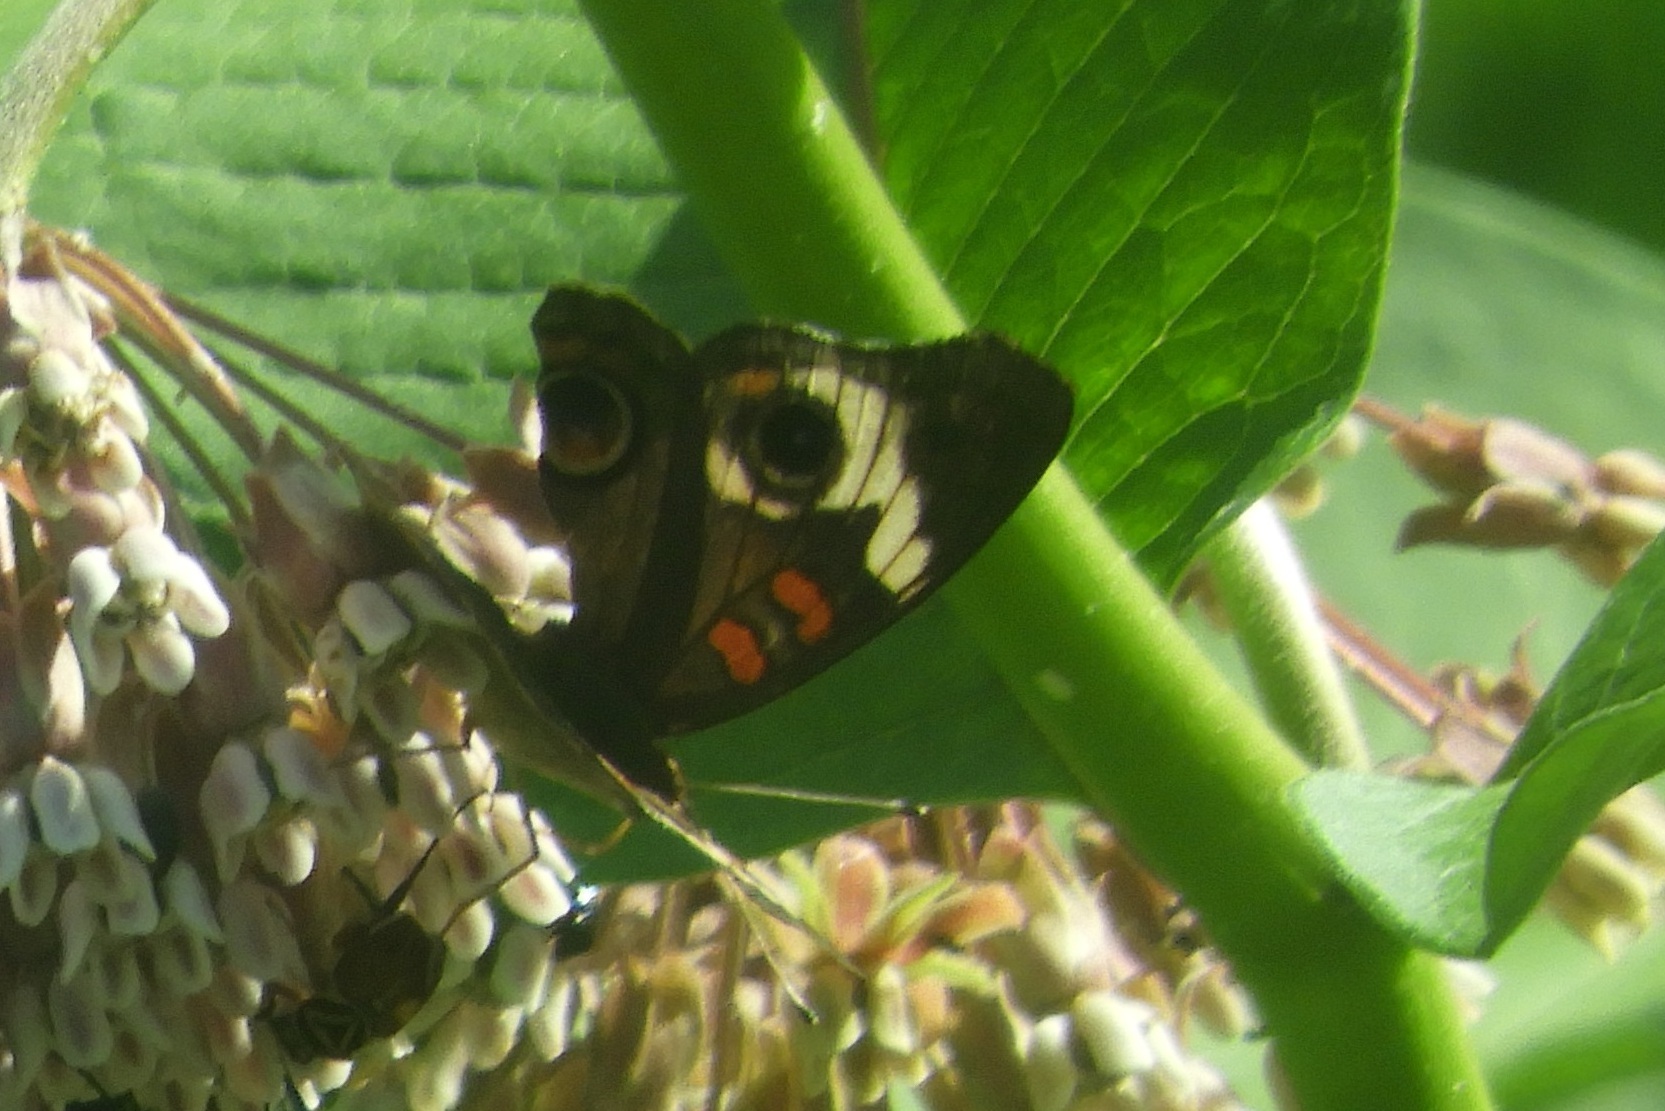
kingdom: Animalia
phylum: Arthropoda
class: Insecta
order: Lepidoptera
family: Nymphalidae
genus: Junonia
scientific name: Junonia coenia
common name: Common buckeye
